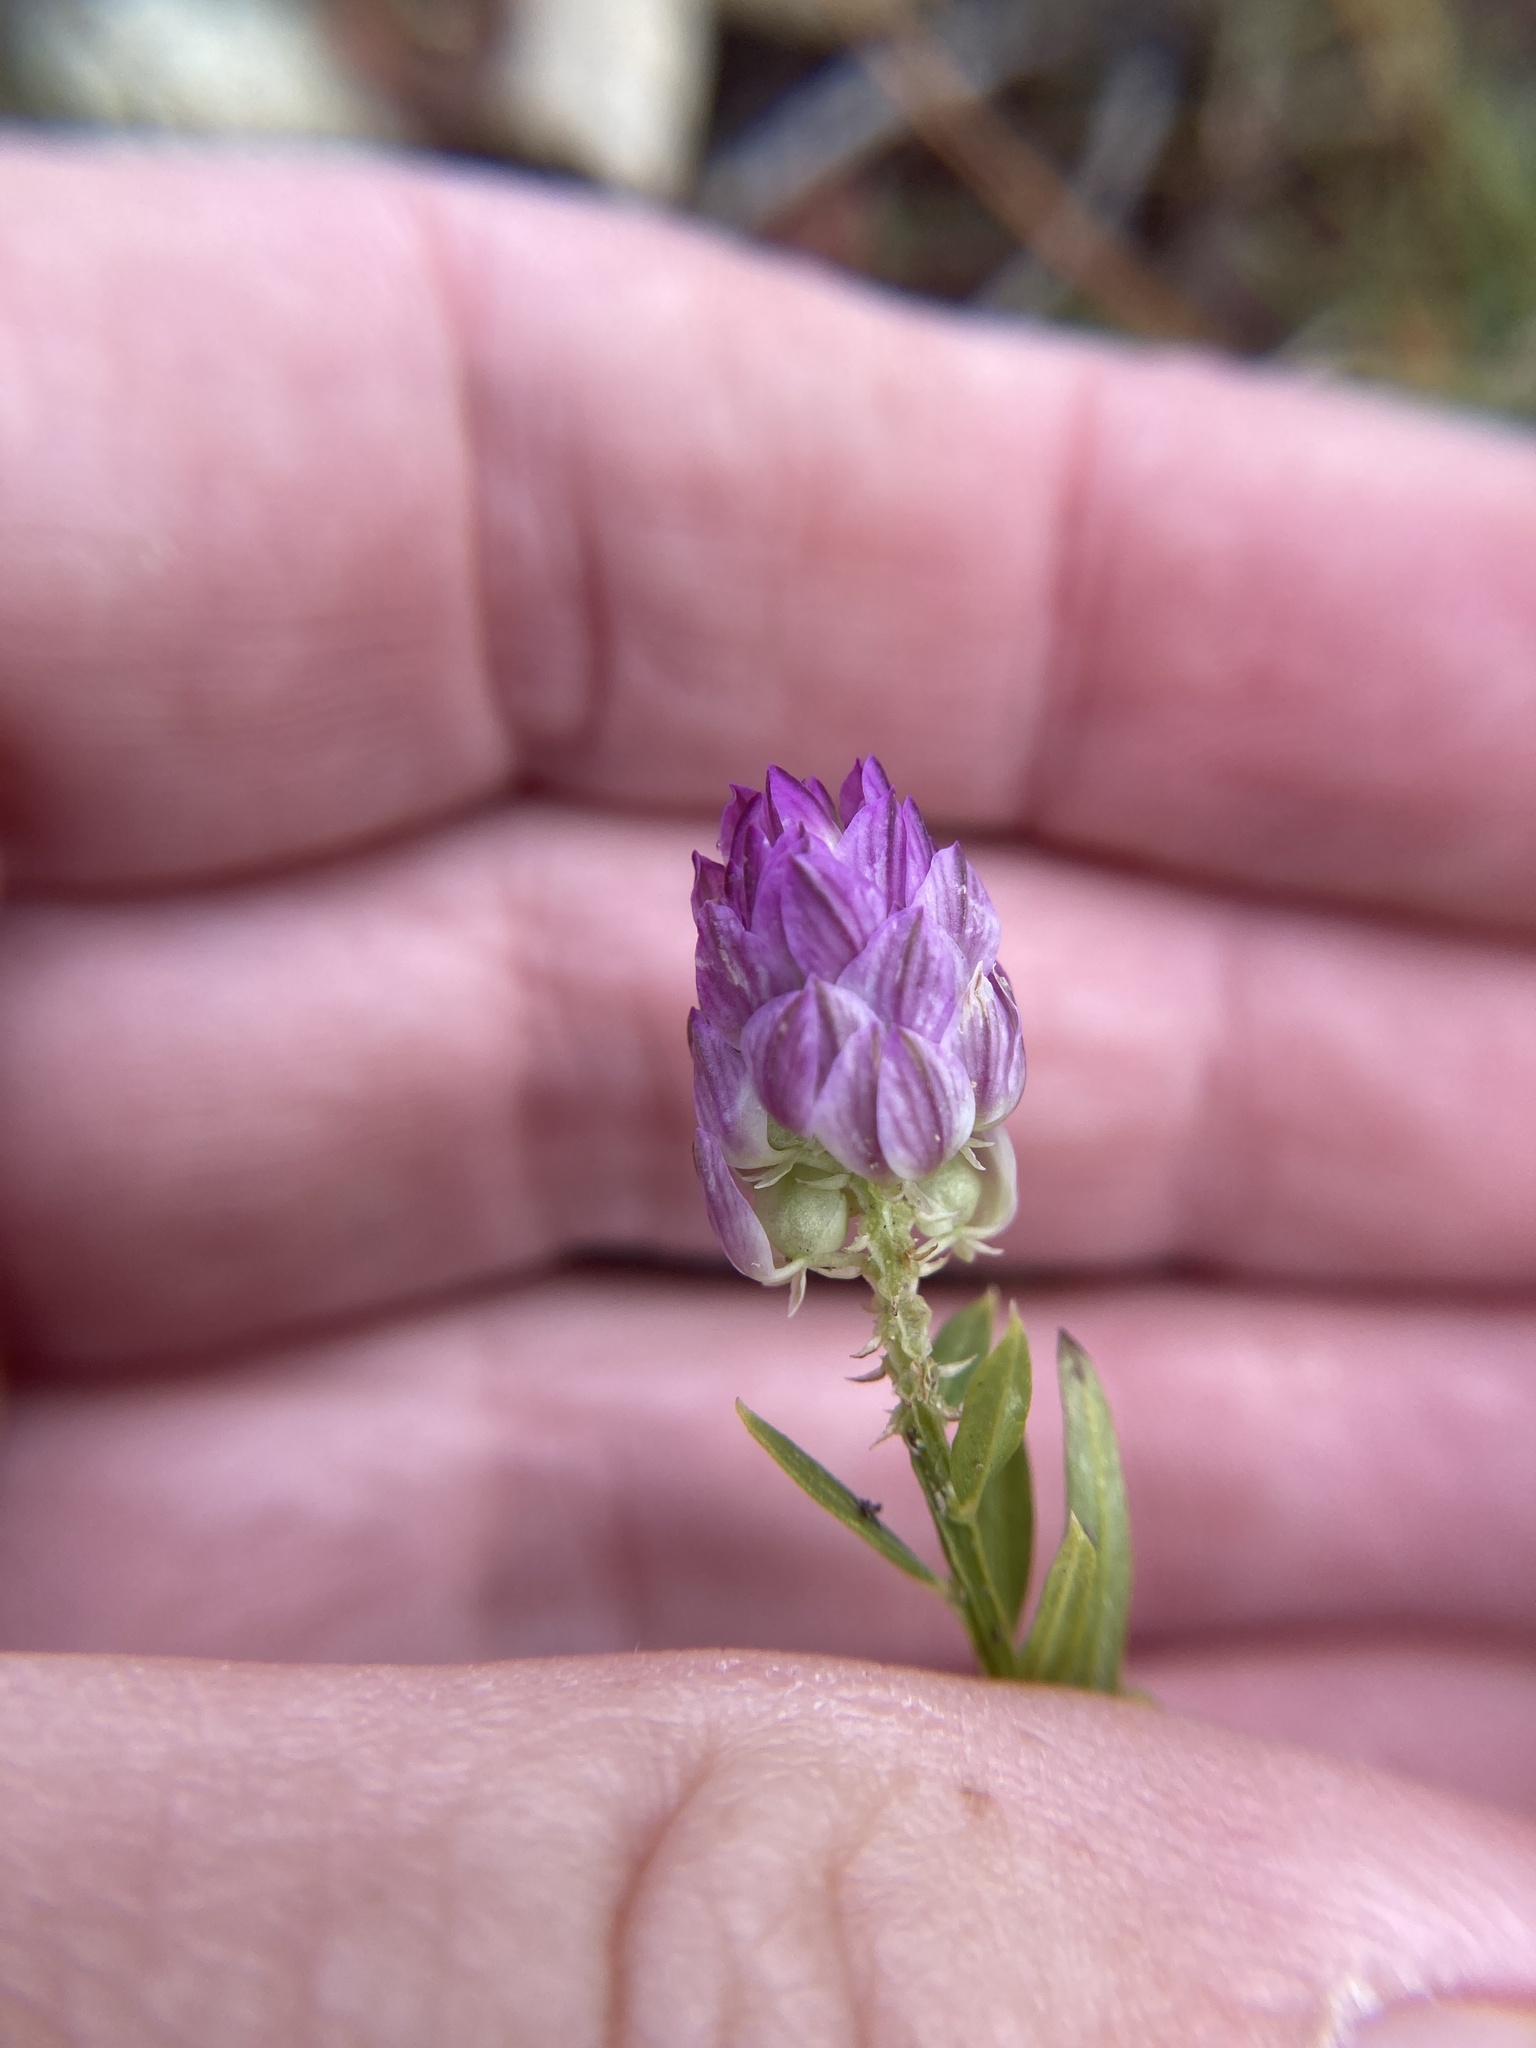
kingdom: Plantae
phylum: Tracheophyta
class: Magnoliopsida
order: Fabales
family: Polygalaceae
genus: Polygala
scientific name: Polygala sanguinea
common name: Blood milkwort
